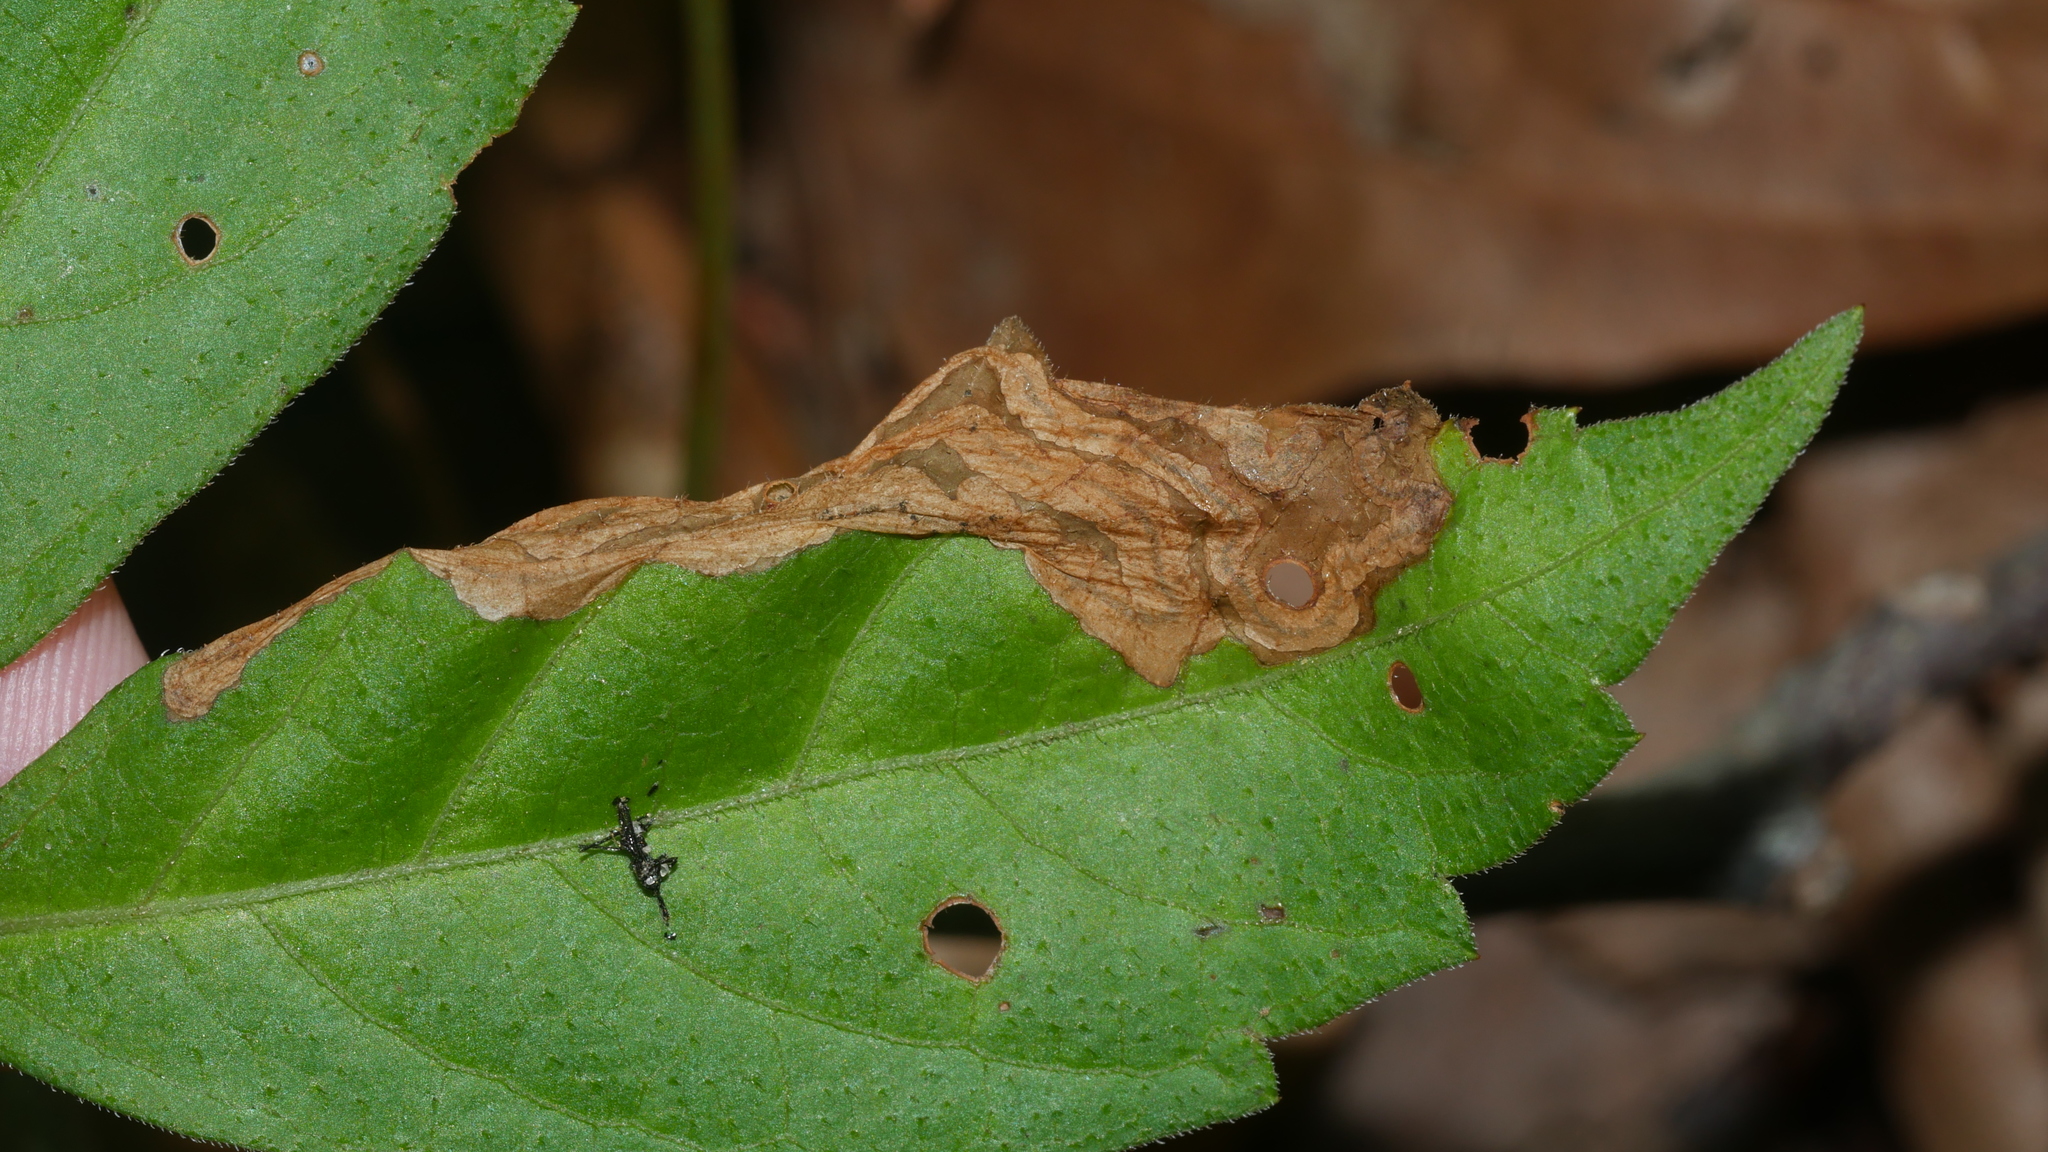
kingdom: Animalia
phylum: Arthropoda
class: Insecta
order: Coleoptera
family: Curculionidae
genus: Orchestomerus
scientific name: Orchestomerus eisemani
